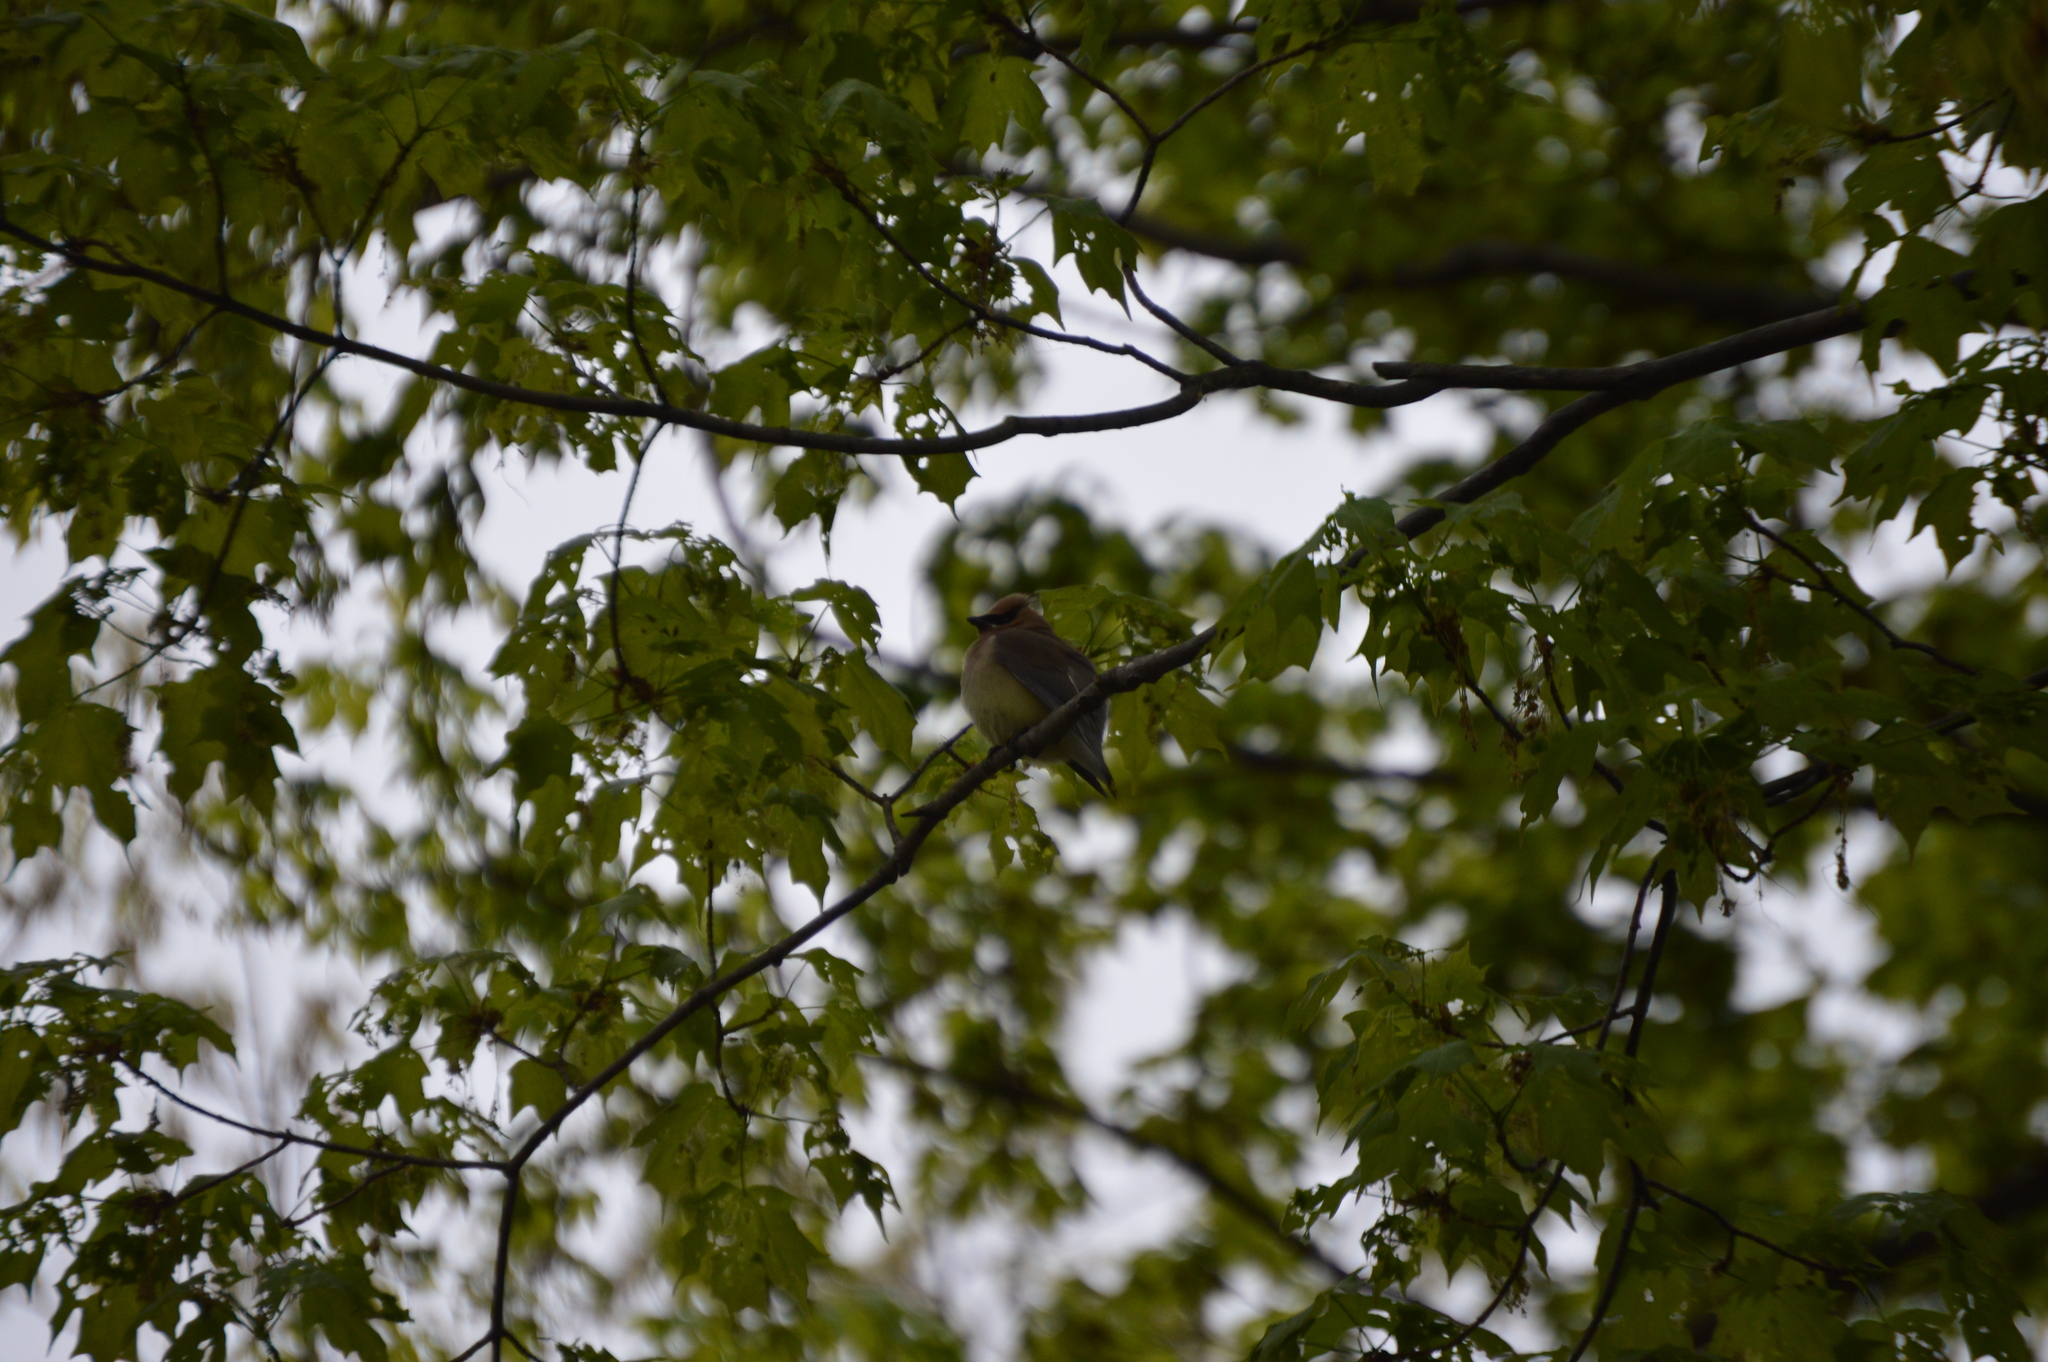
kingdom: Animalia
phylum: Chordata
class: Aves
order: Passeriformes
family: Bombycillidae
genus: Bombycilla
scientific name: Bombycilla cedrorum
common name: Cedar waxwing
